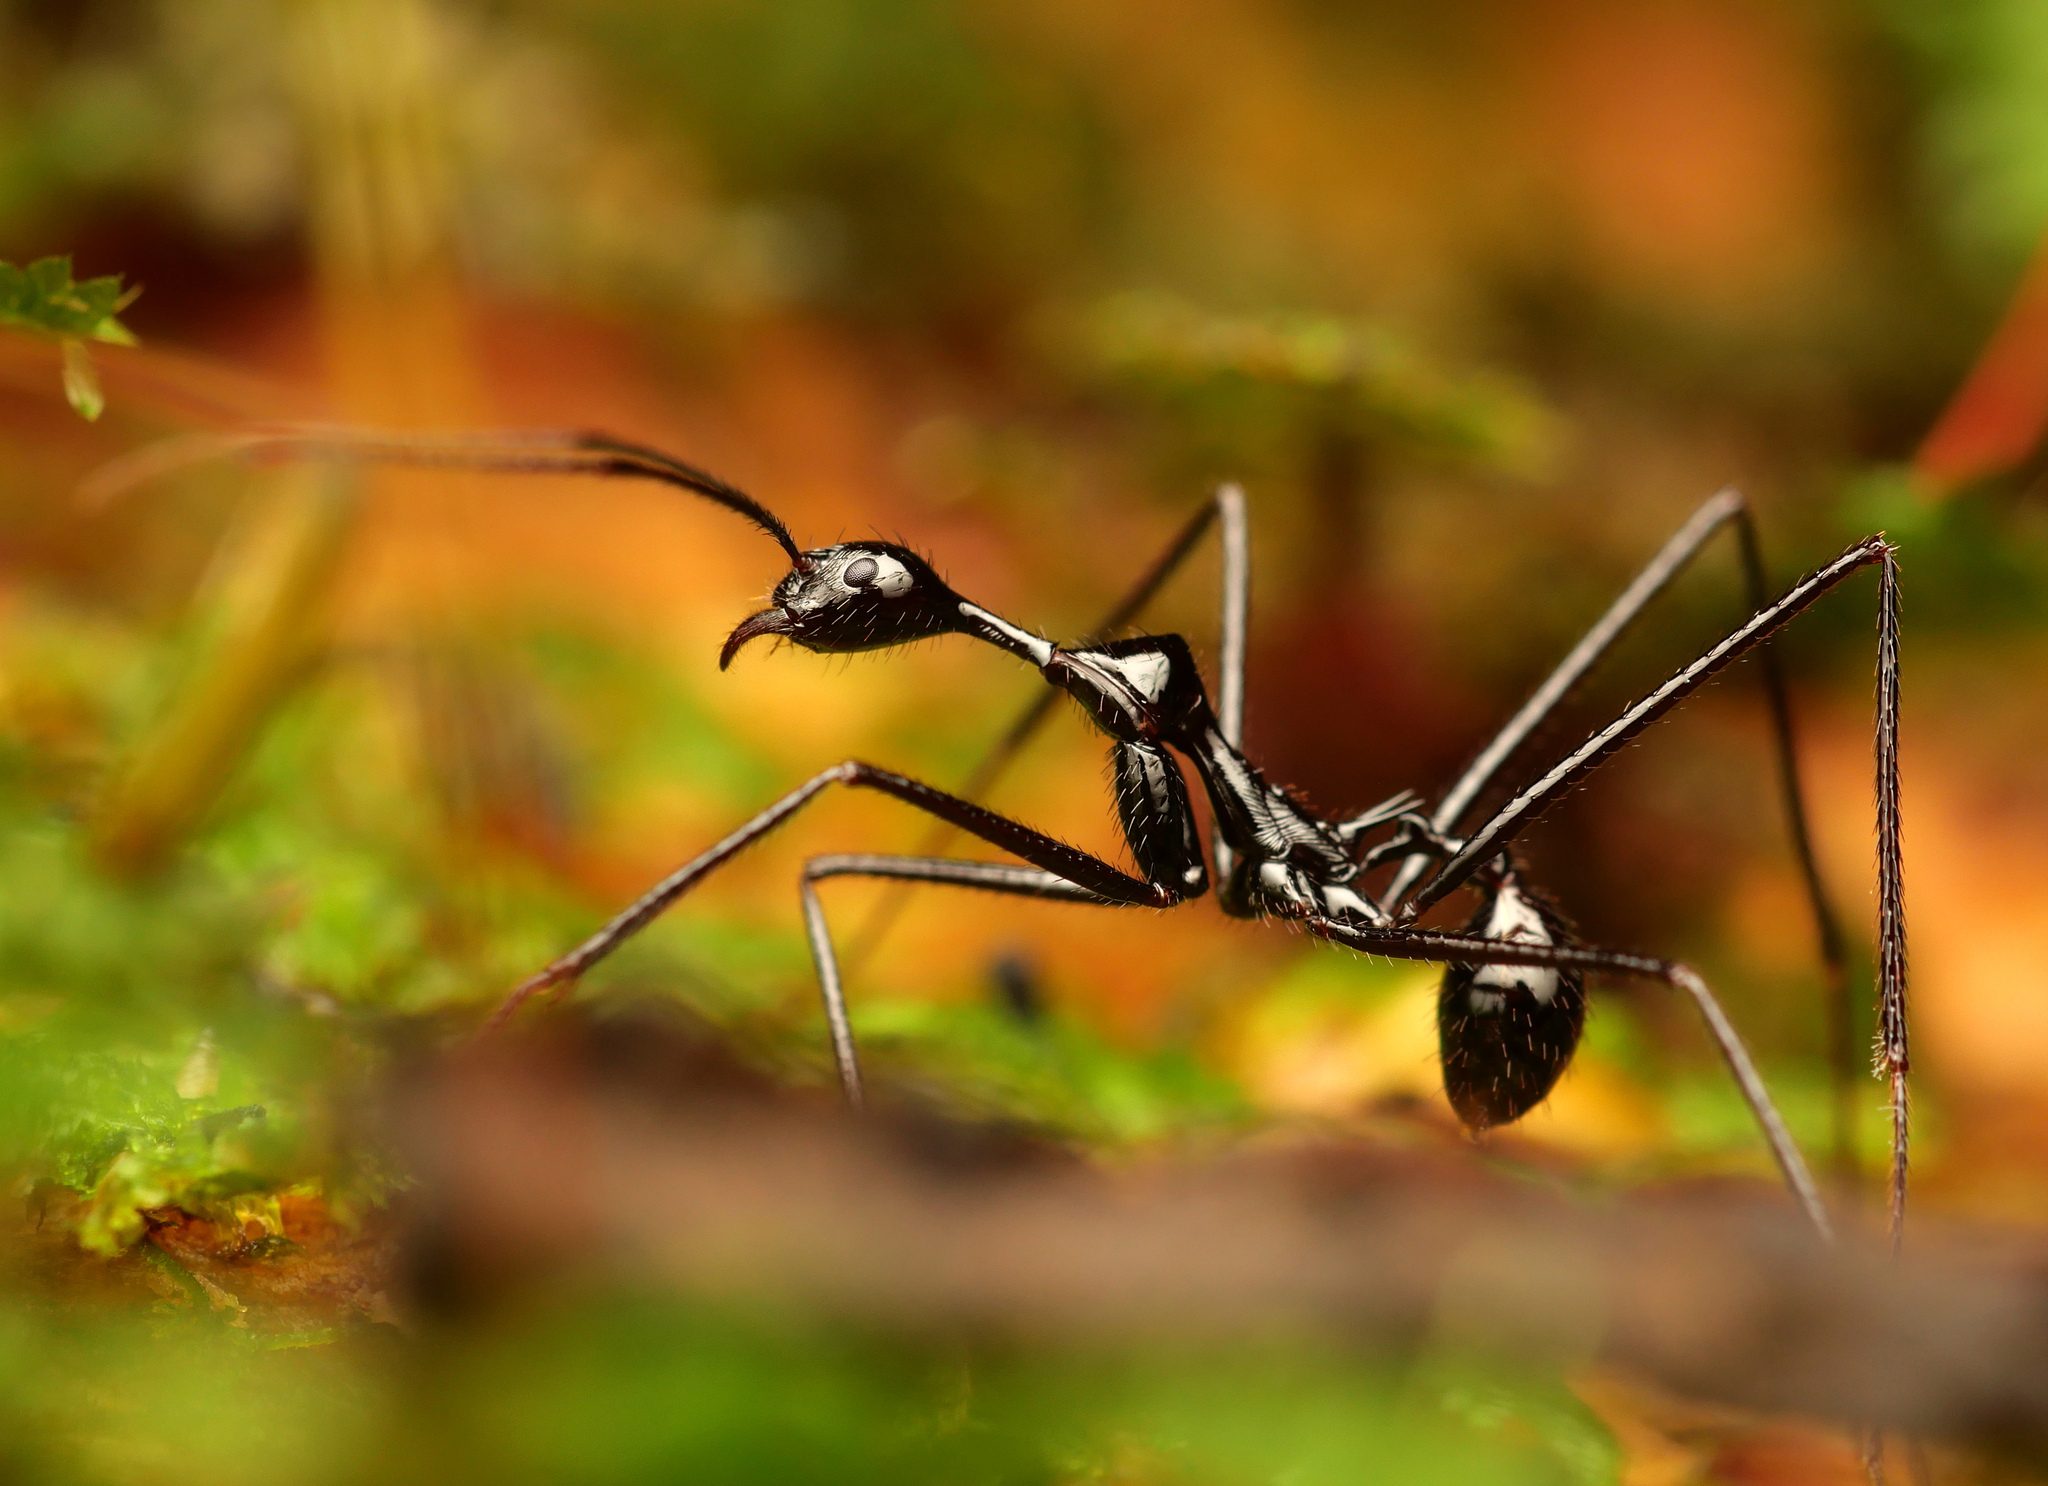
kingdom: Animalia
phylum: Arthropoda
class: Insecta
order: Hymenoptera
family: Formicidae
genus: Aphaenogaster
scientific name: Aphaenogaster dromedaria
